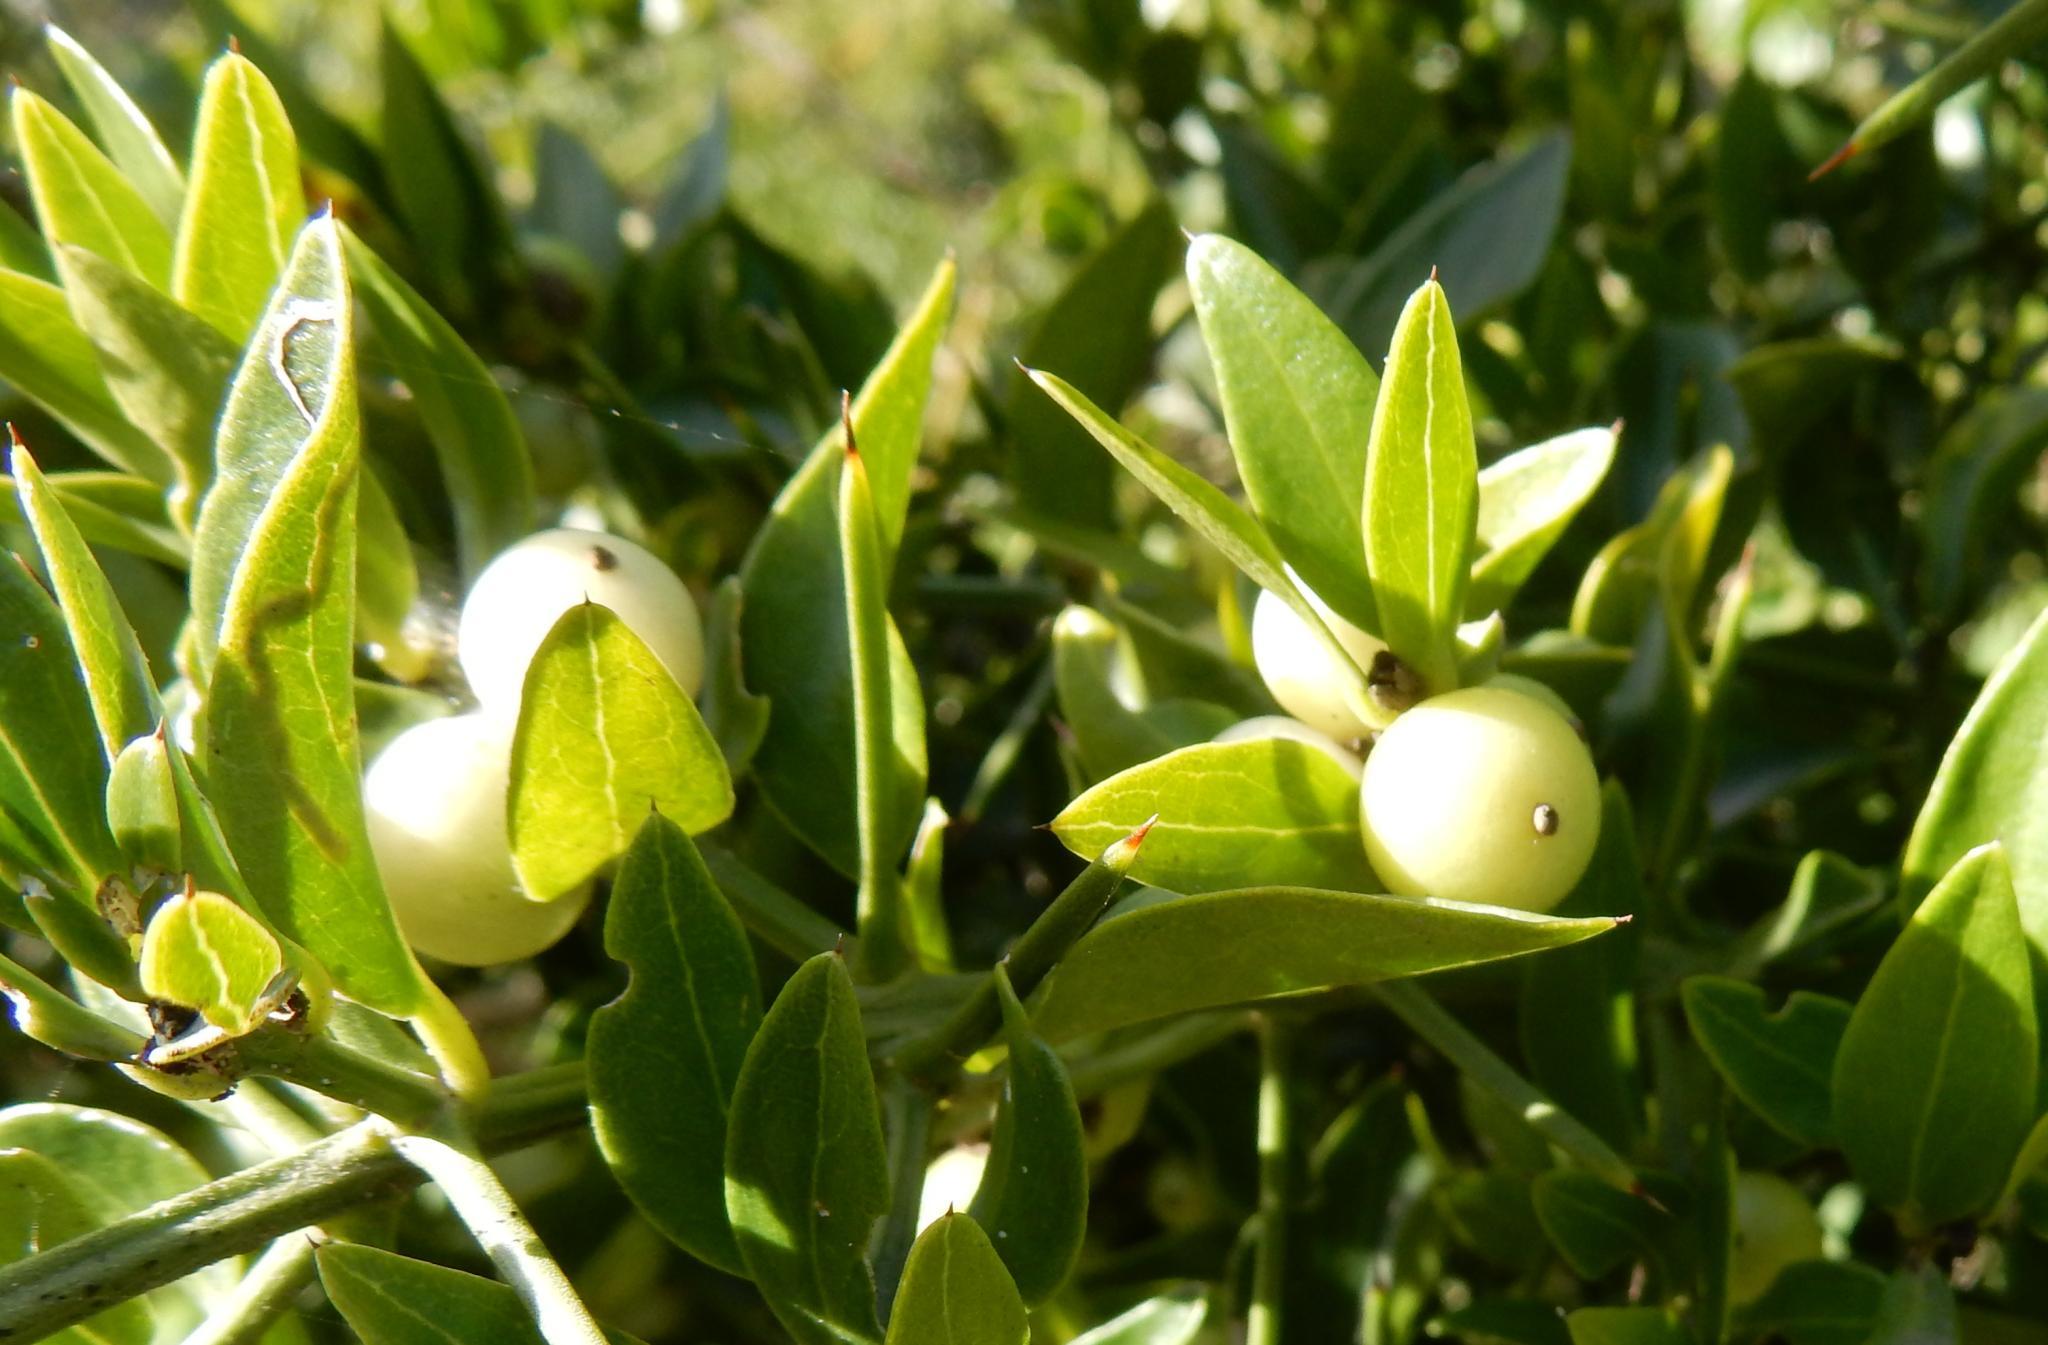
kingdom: Plantae
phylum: Tracheophyta
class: Magnoliopsida
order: Brassicales
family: Salvadoraceae
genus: Azima
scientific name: Azima tetracantha
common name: Needle bush
